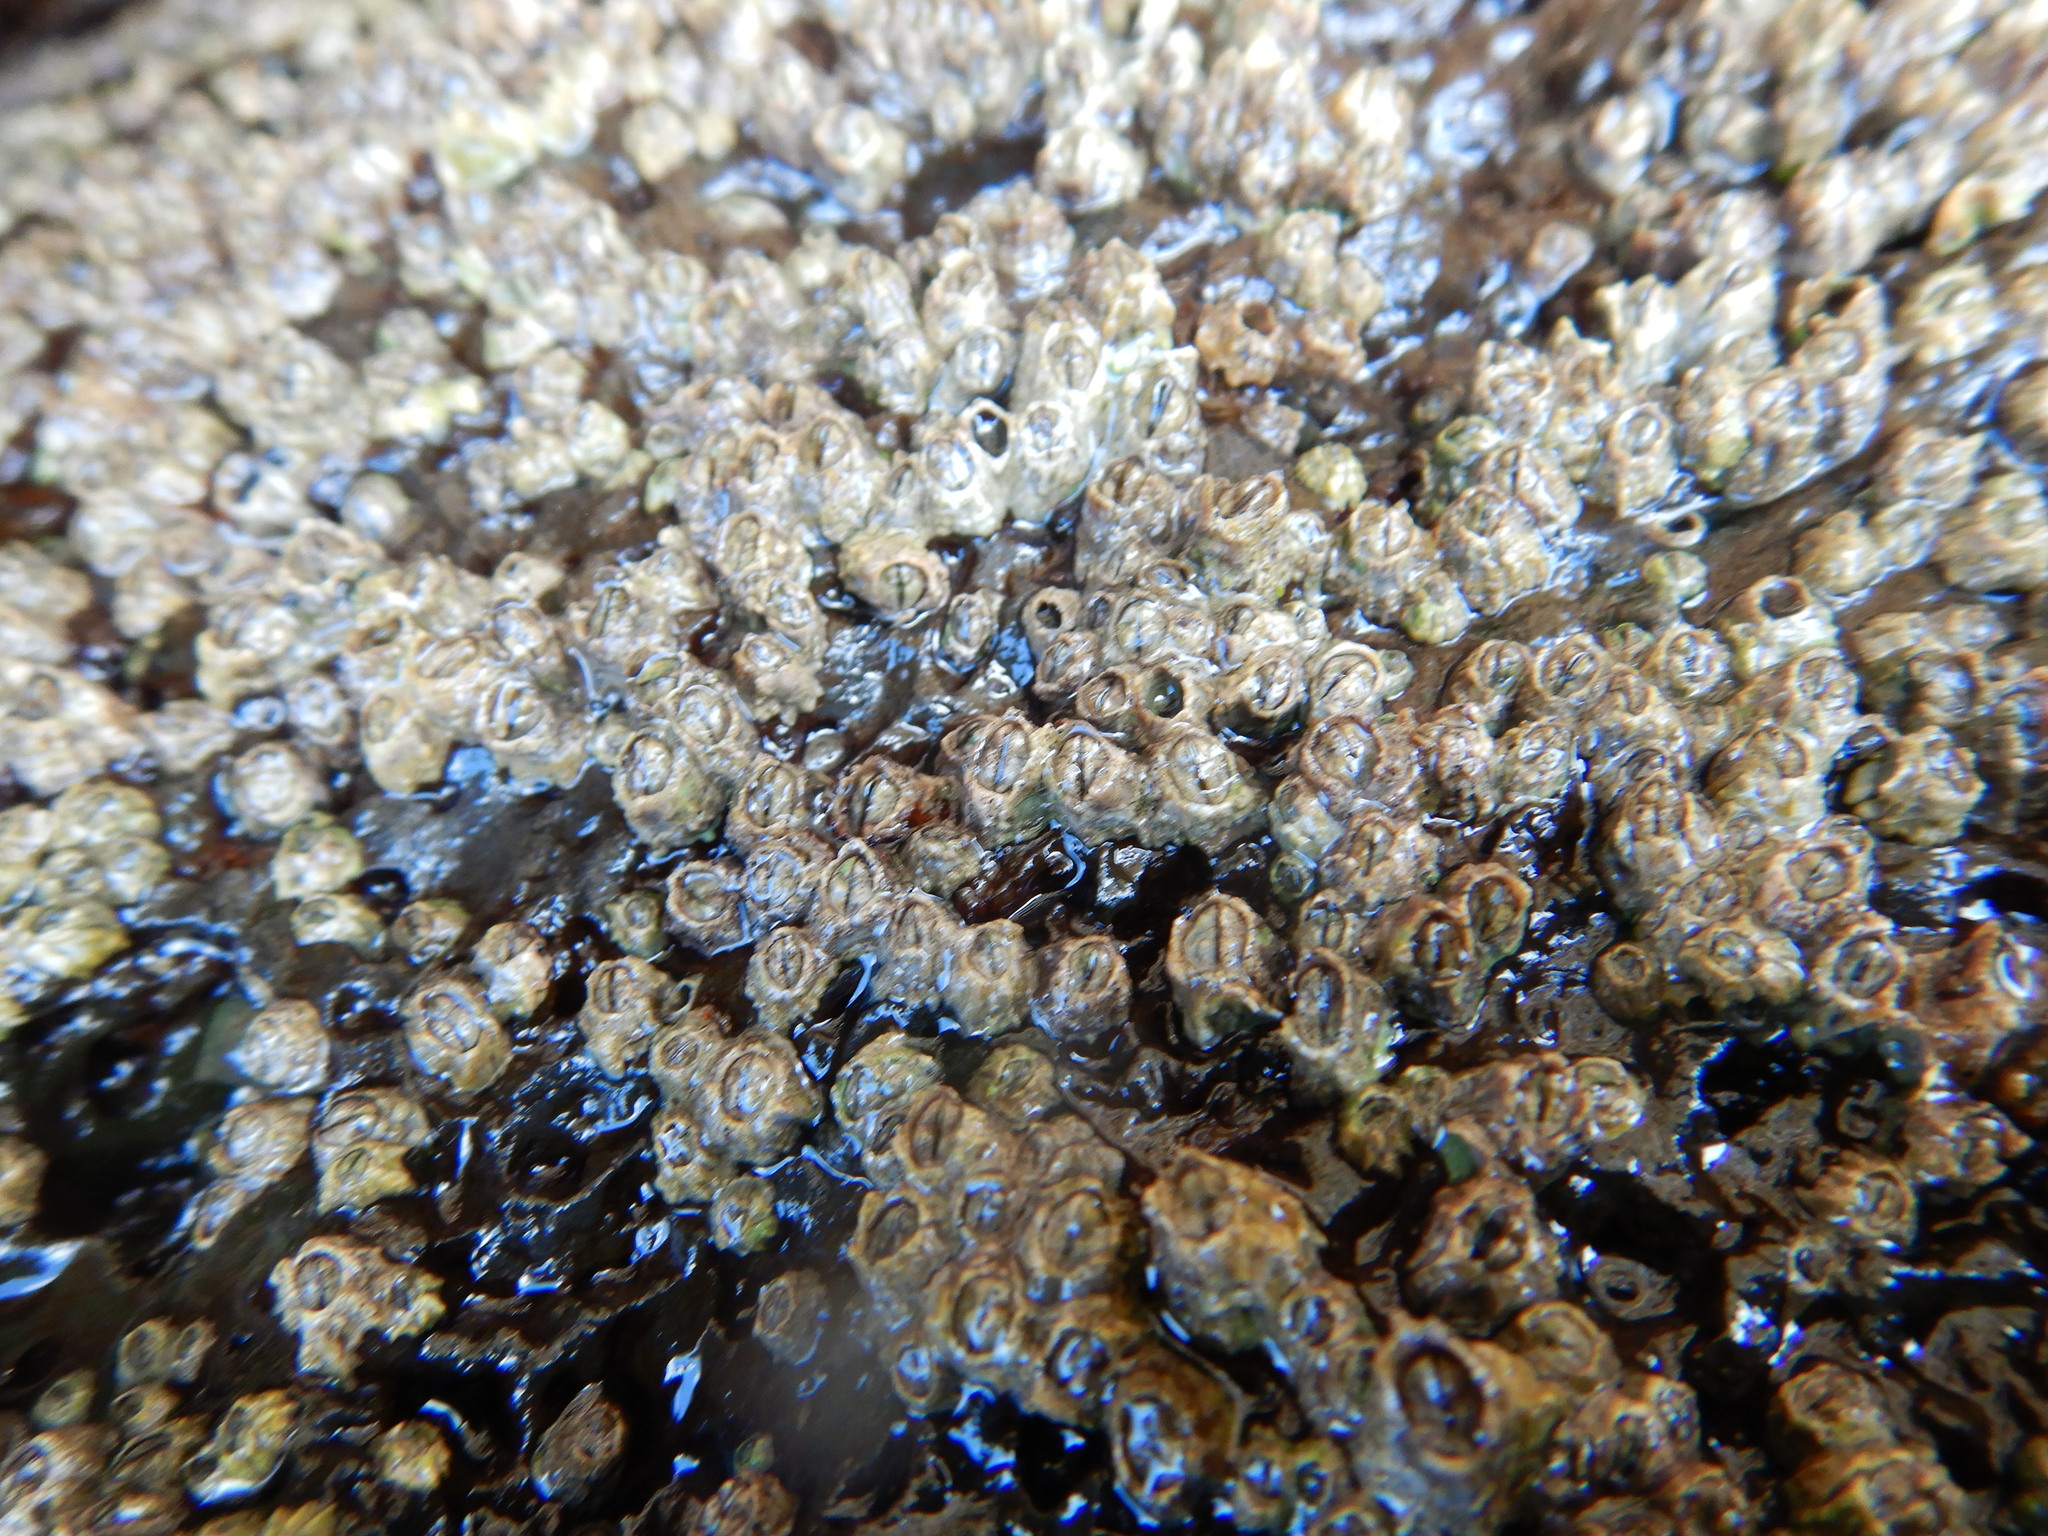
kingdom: Animalia
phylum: Arthropoda
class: Maxillopoda
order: Sessilia
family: Chthamalidae
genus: Chthamalus
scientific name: Chthamalus stellatus
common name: Poli's stellate barnacle
